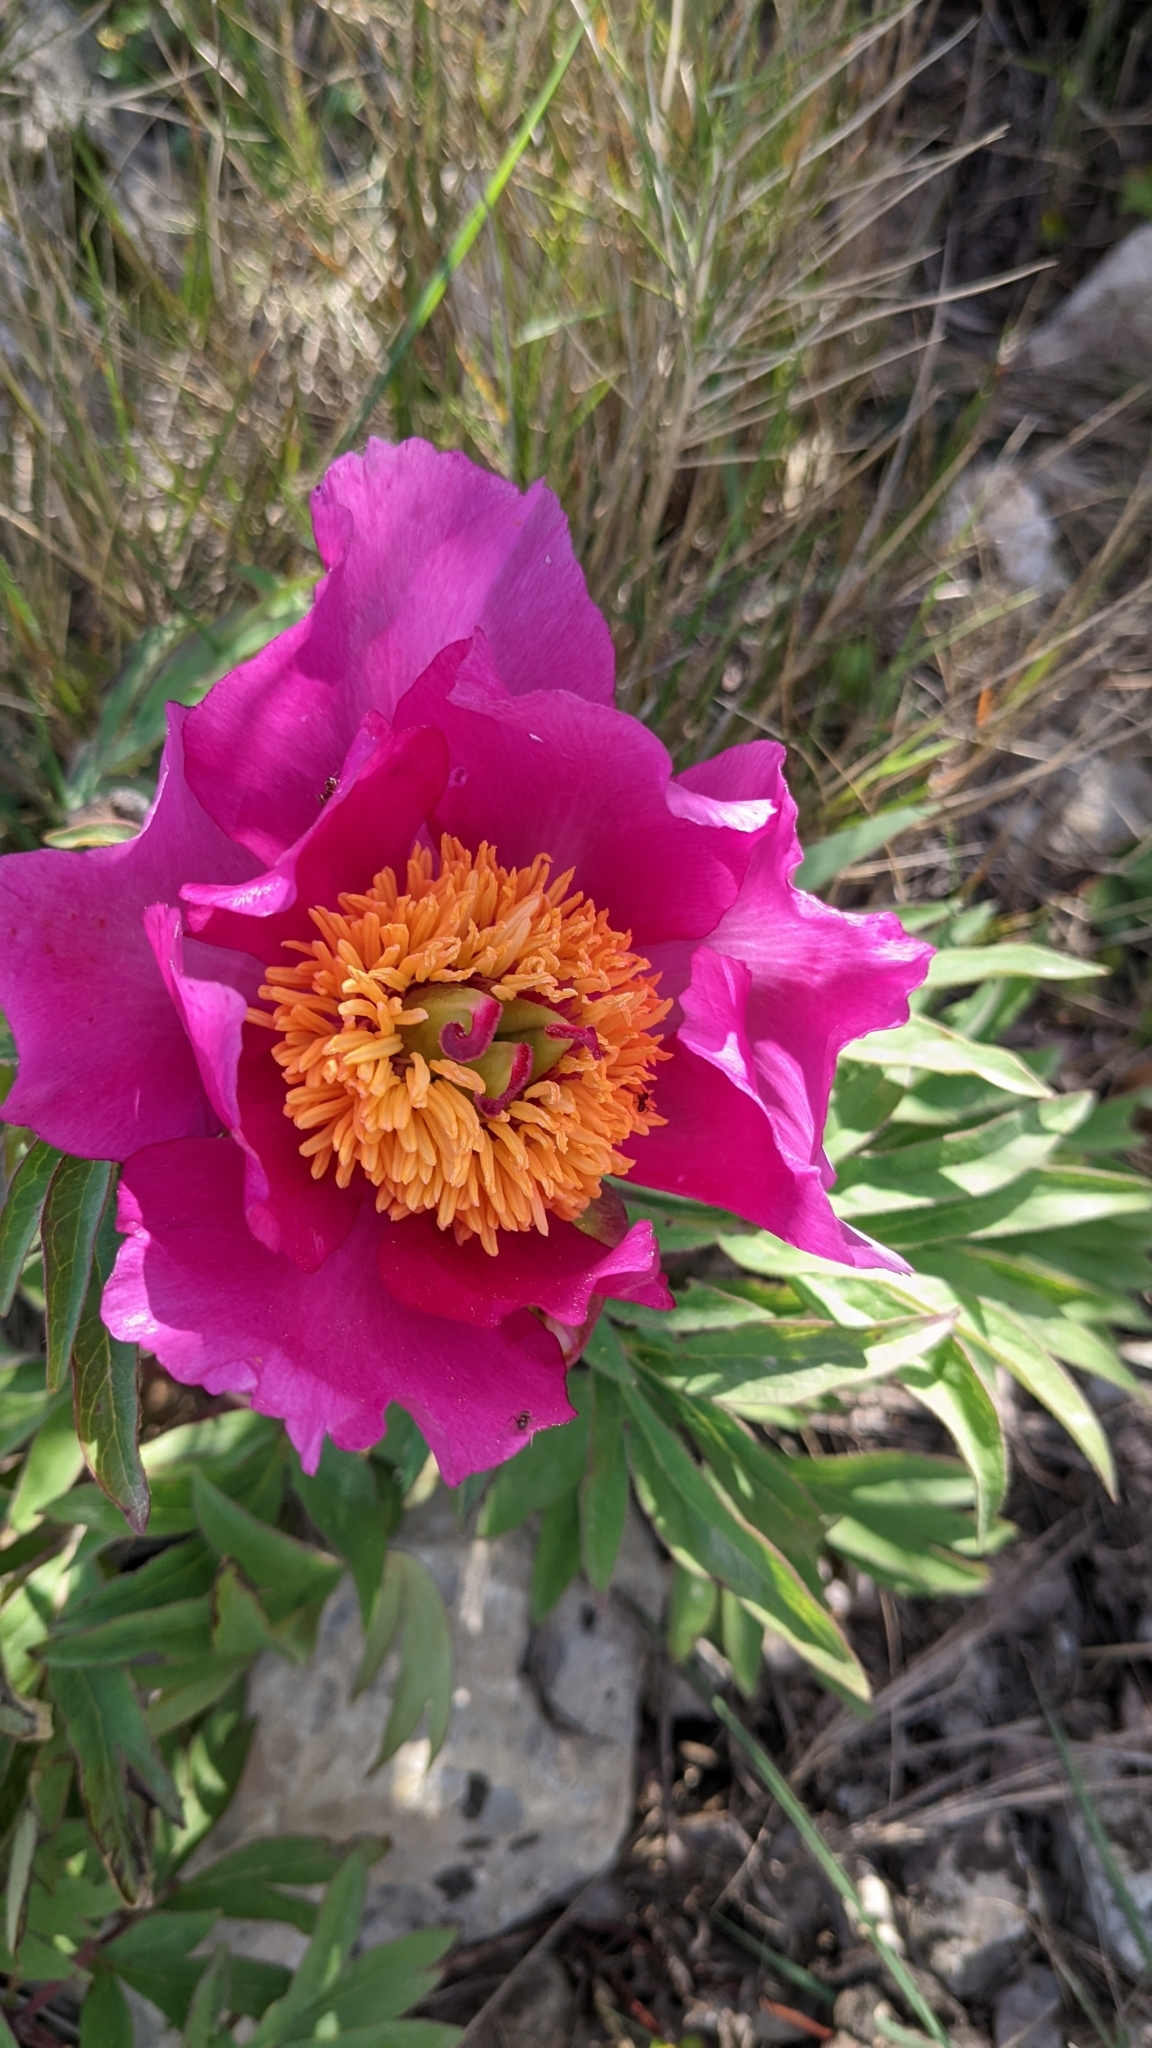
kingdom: Plantae
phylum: Tracheophyta
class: Magnoliopsida
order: Saxifragales
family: Paeoniaceae
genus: Paeonia
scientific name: Paeonia officinalis
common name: Common peony
